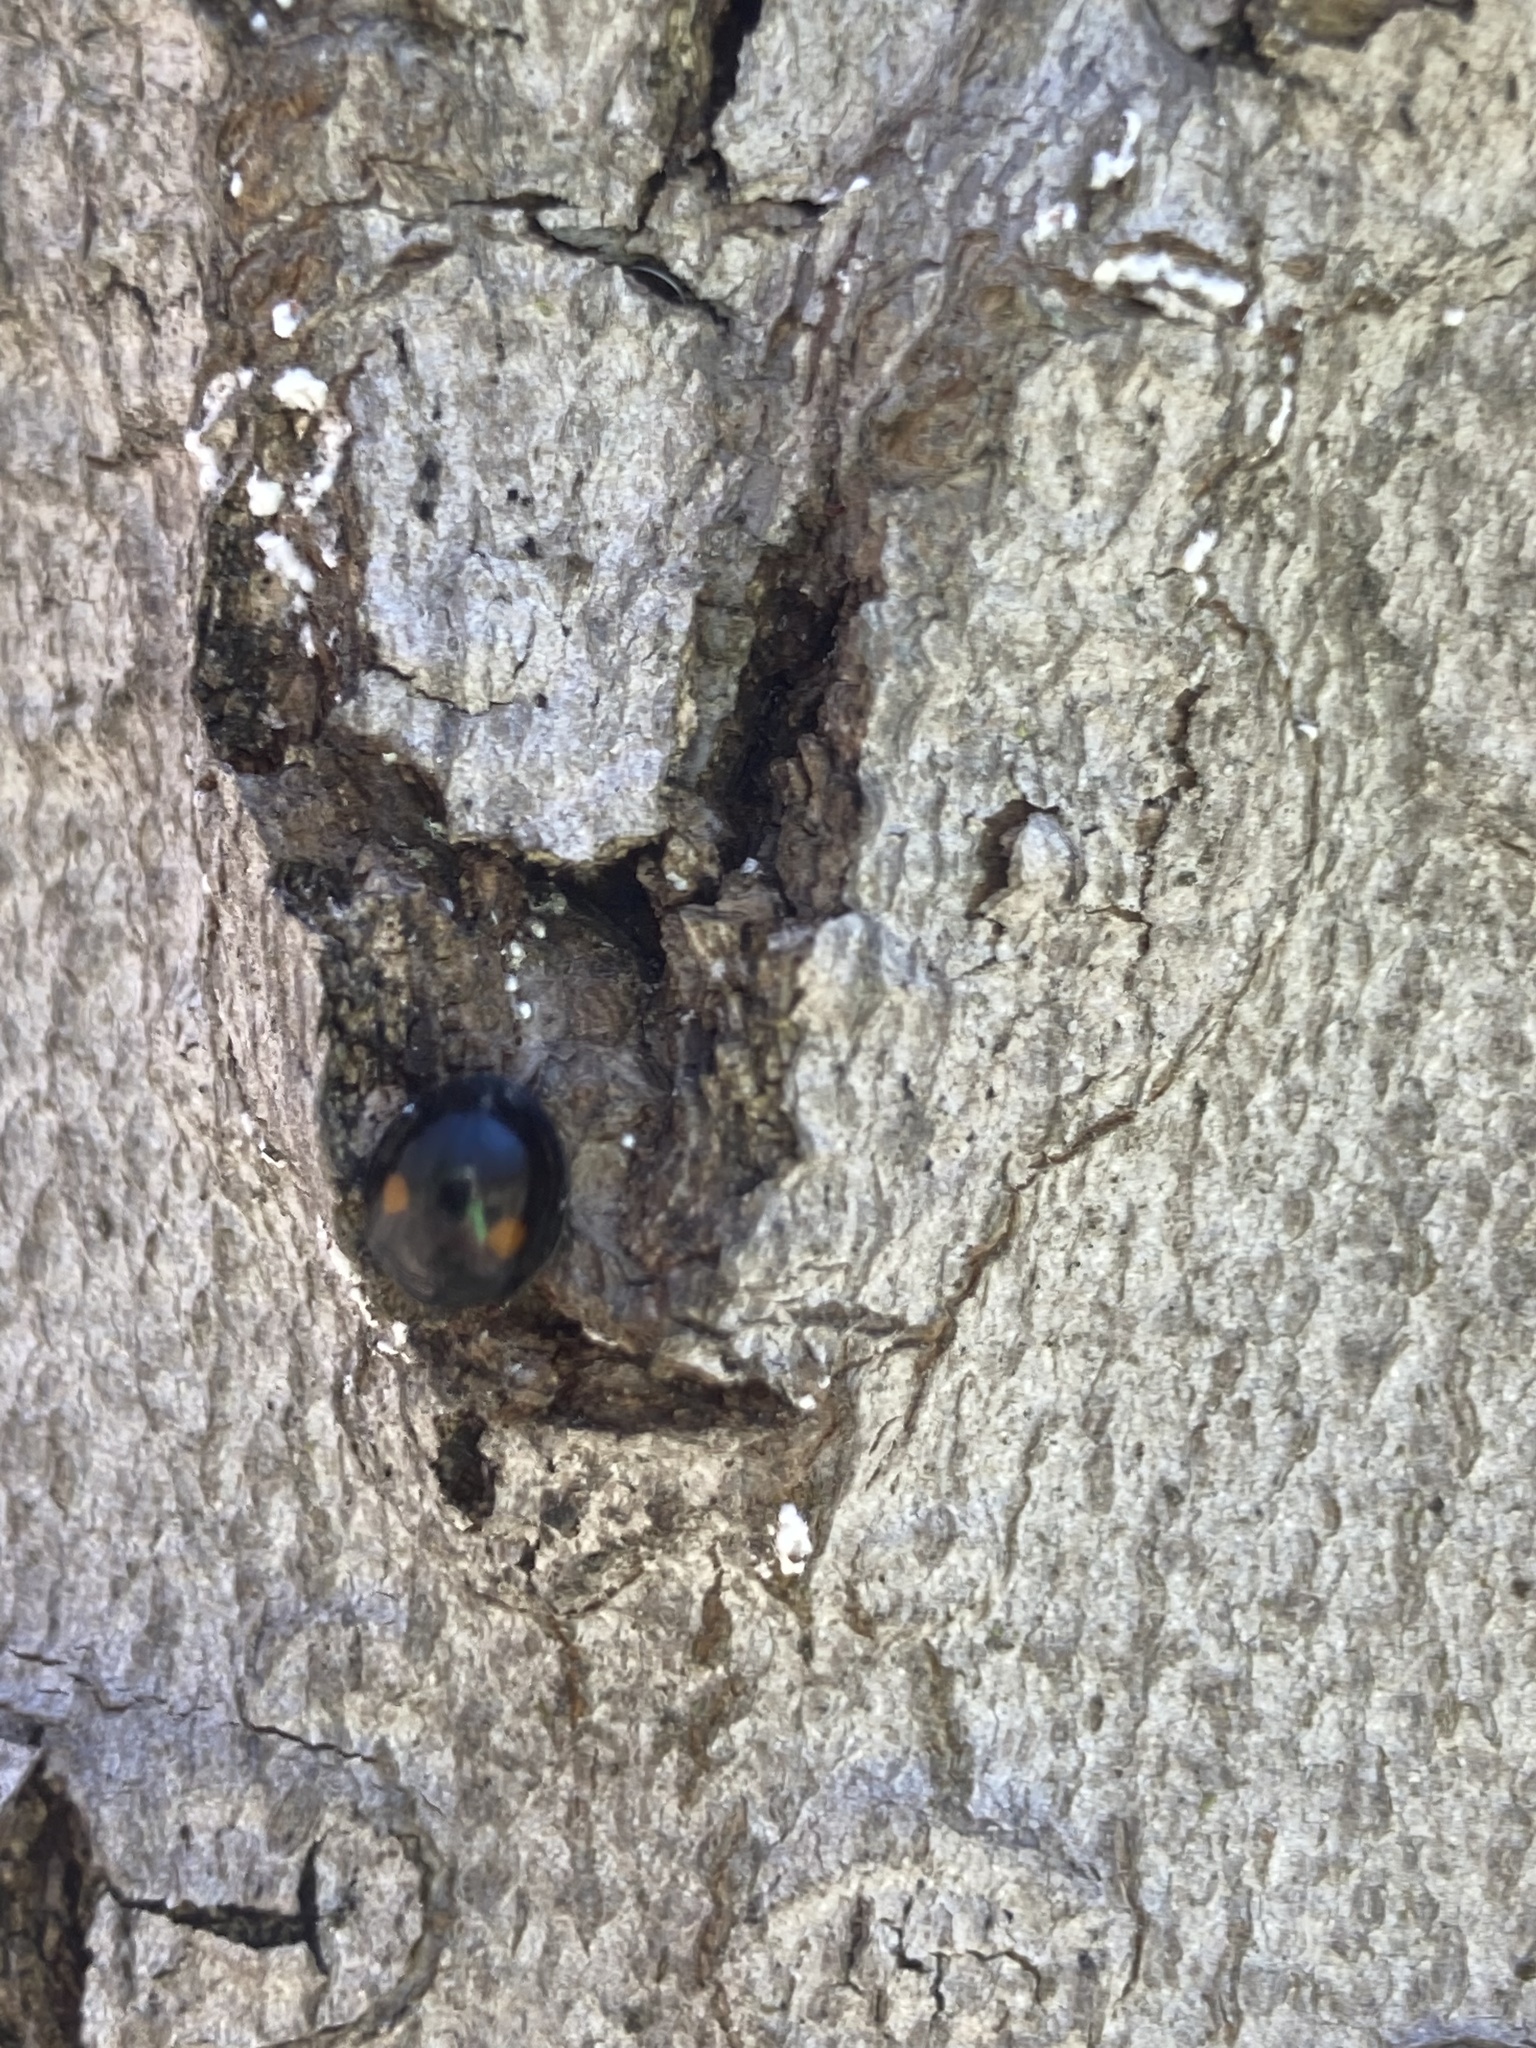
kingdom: Animalia
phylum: Arthropoda
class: Insecta
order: Coleoptera
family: Coccinellidae
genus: Chilocorus
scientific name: Chilocorus stigma
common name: Twicestabbed lady beetle
